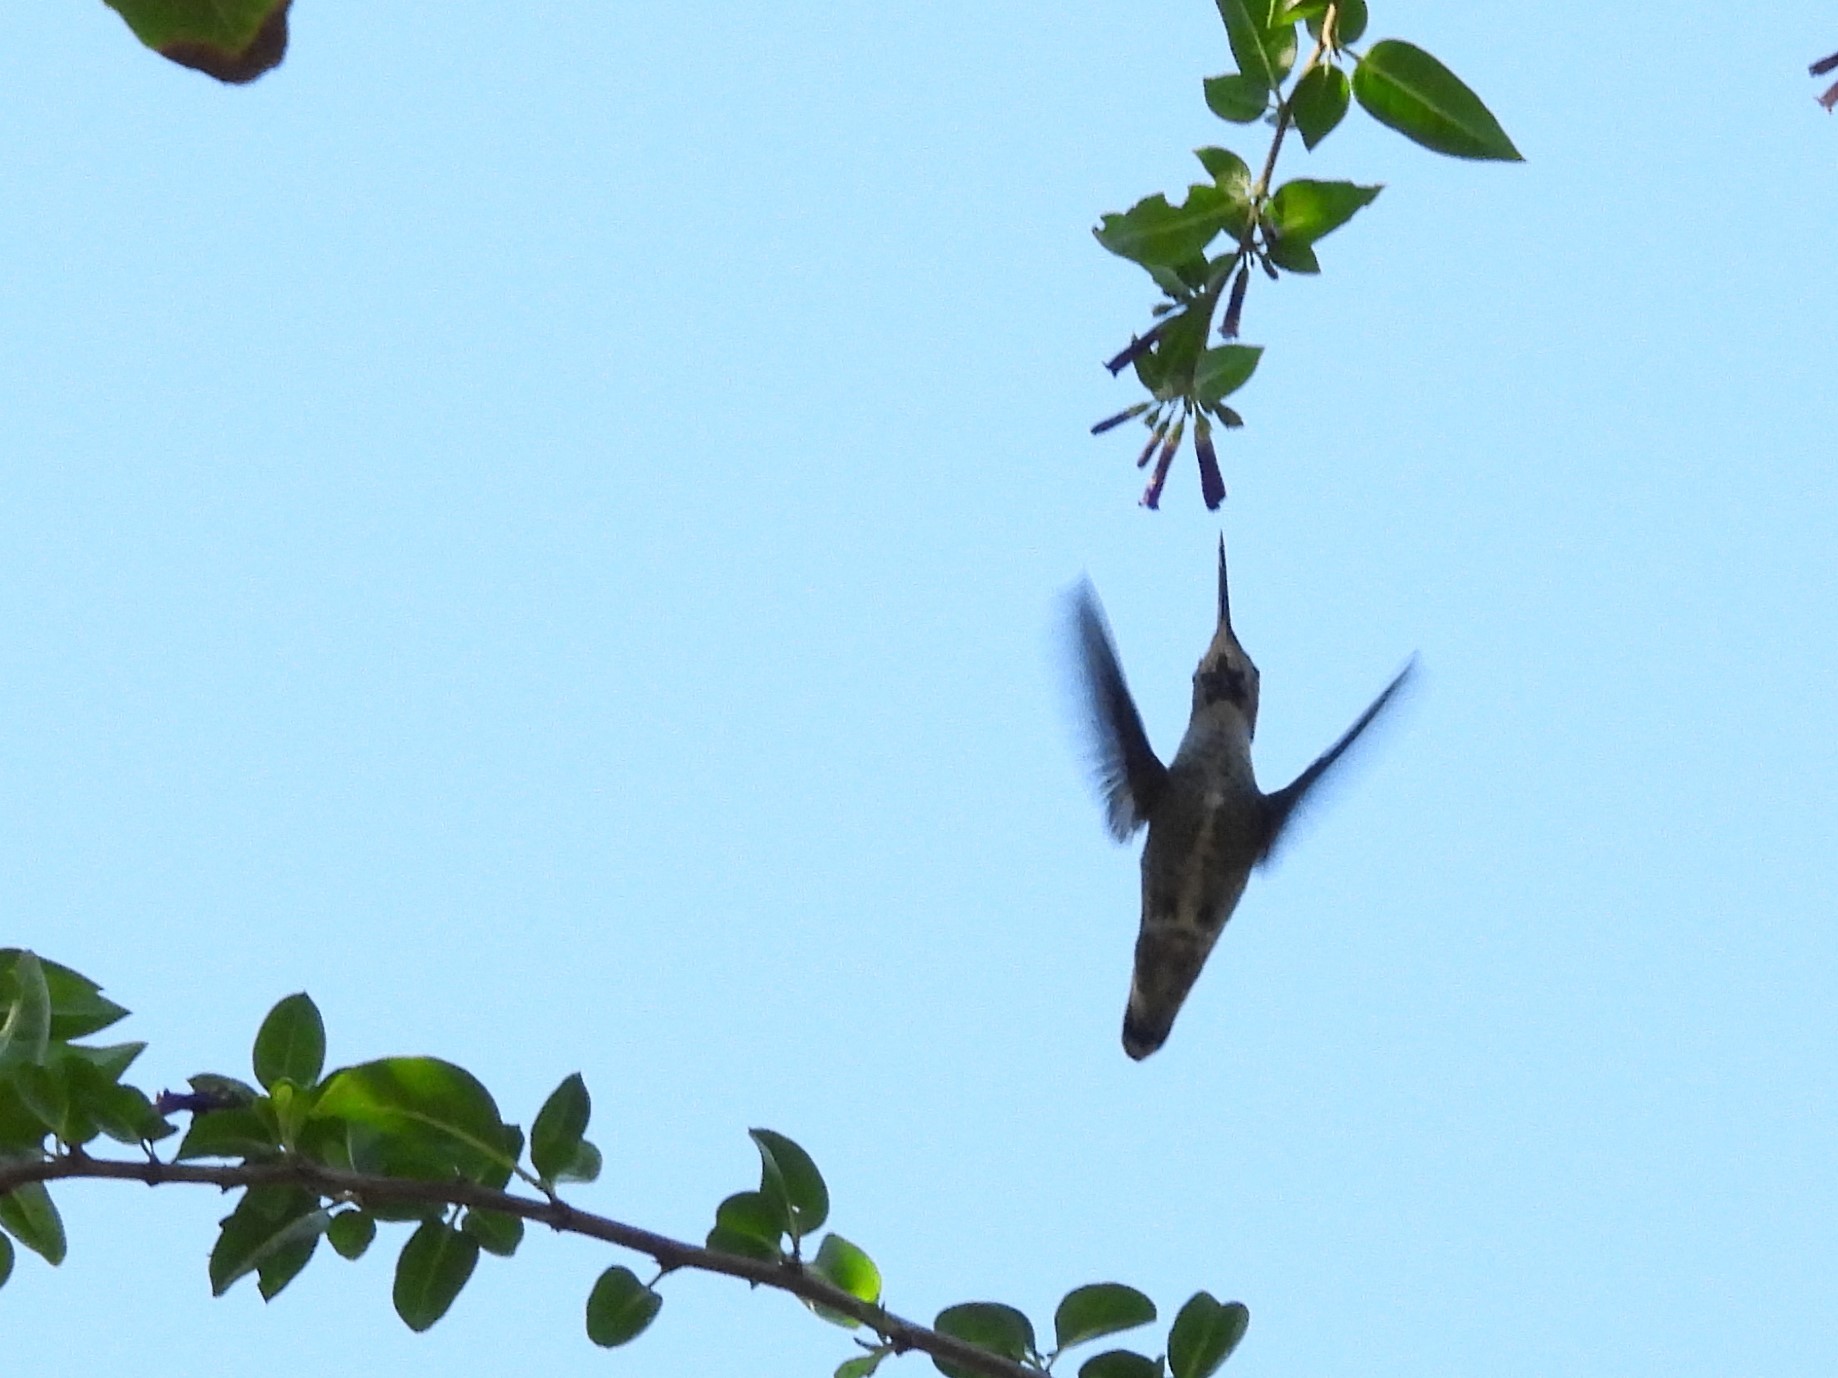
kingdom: Animalia
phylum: Chordata
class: Aves
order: Apodiformes
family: Trochilidae
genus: Calypte
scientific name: Calypte anna
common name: Anna's hummingbird
